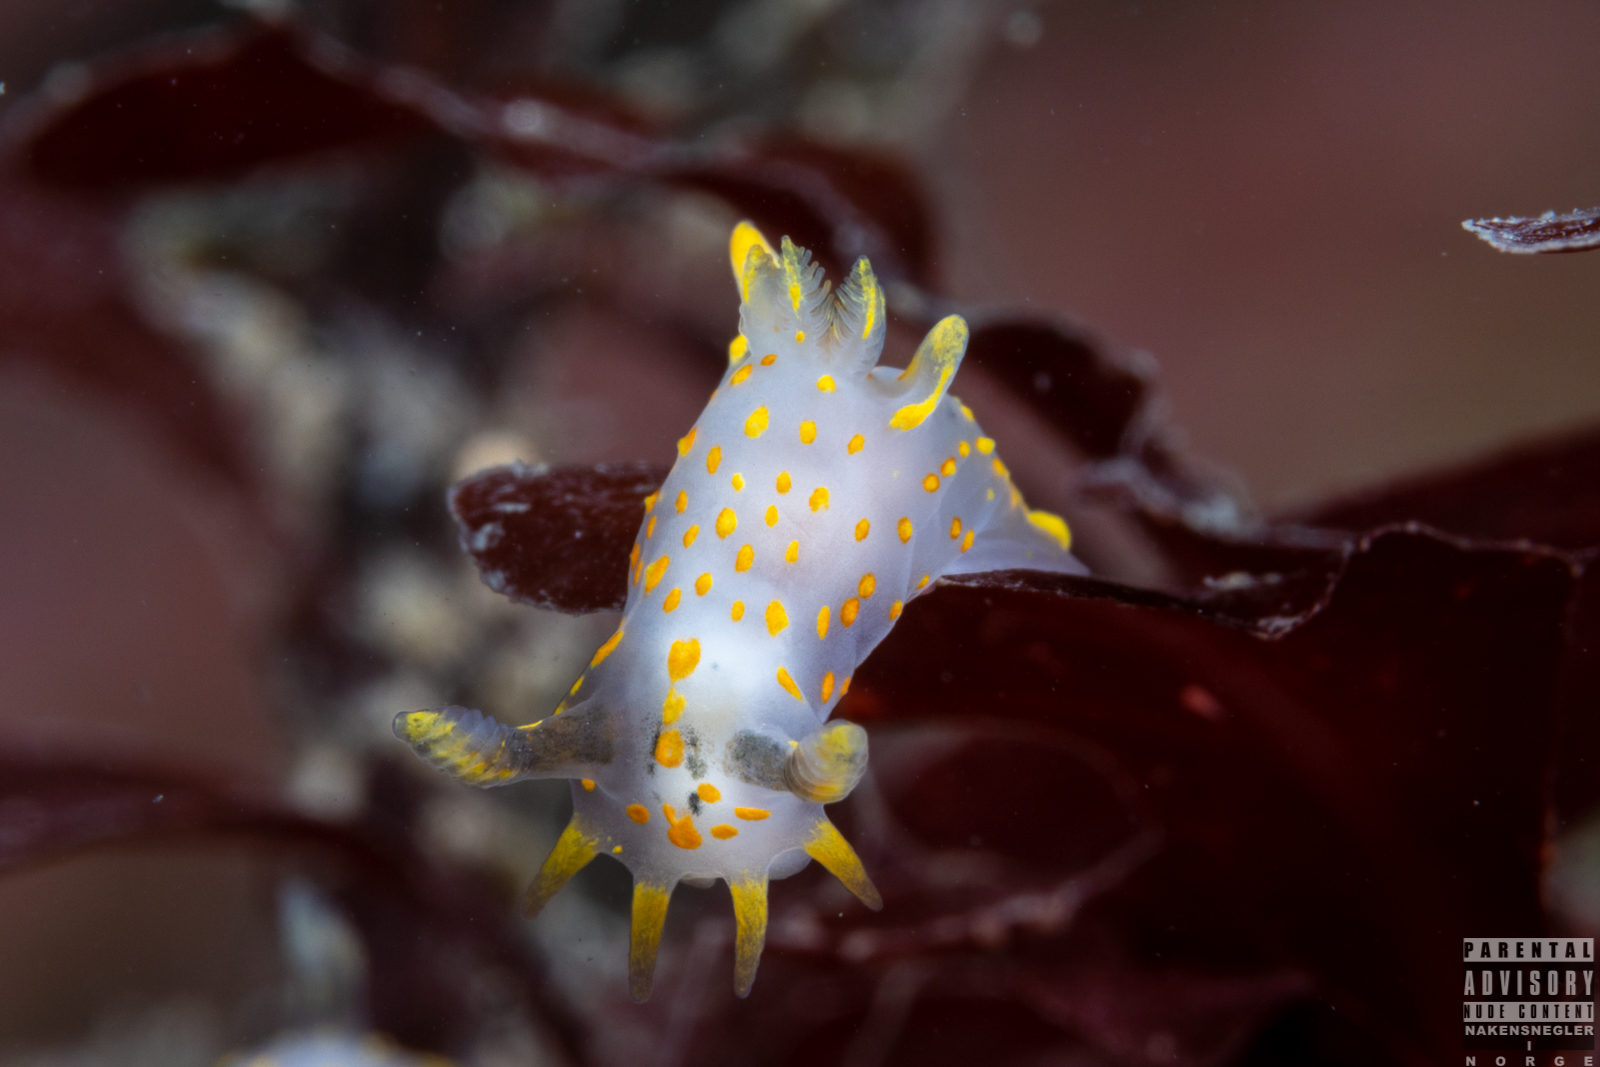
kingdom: Animalia
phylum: Mollusca
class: Gastropoda
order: Nudibranchia
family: Polyceridae
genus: Polycera
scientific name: Polycera quadrilineata
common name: Four-striped polycera
